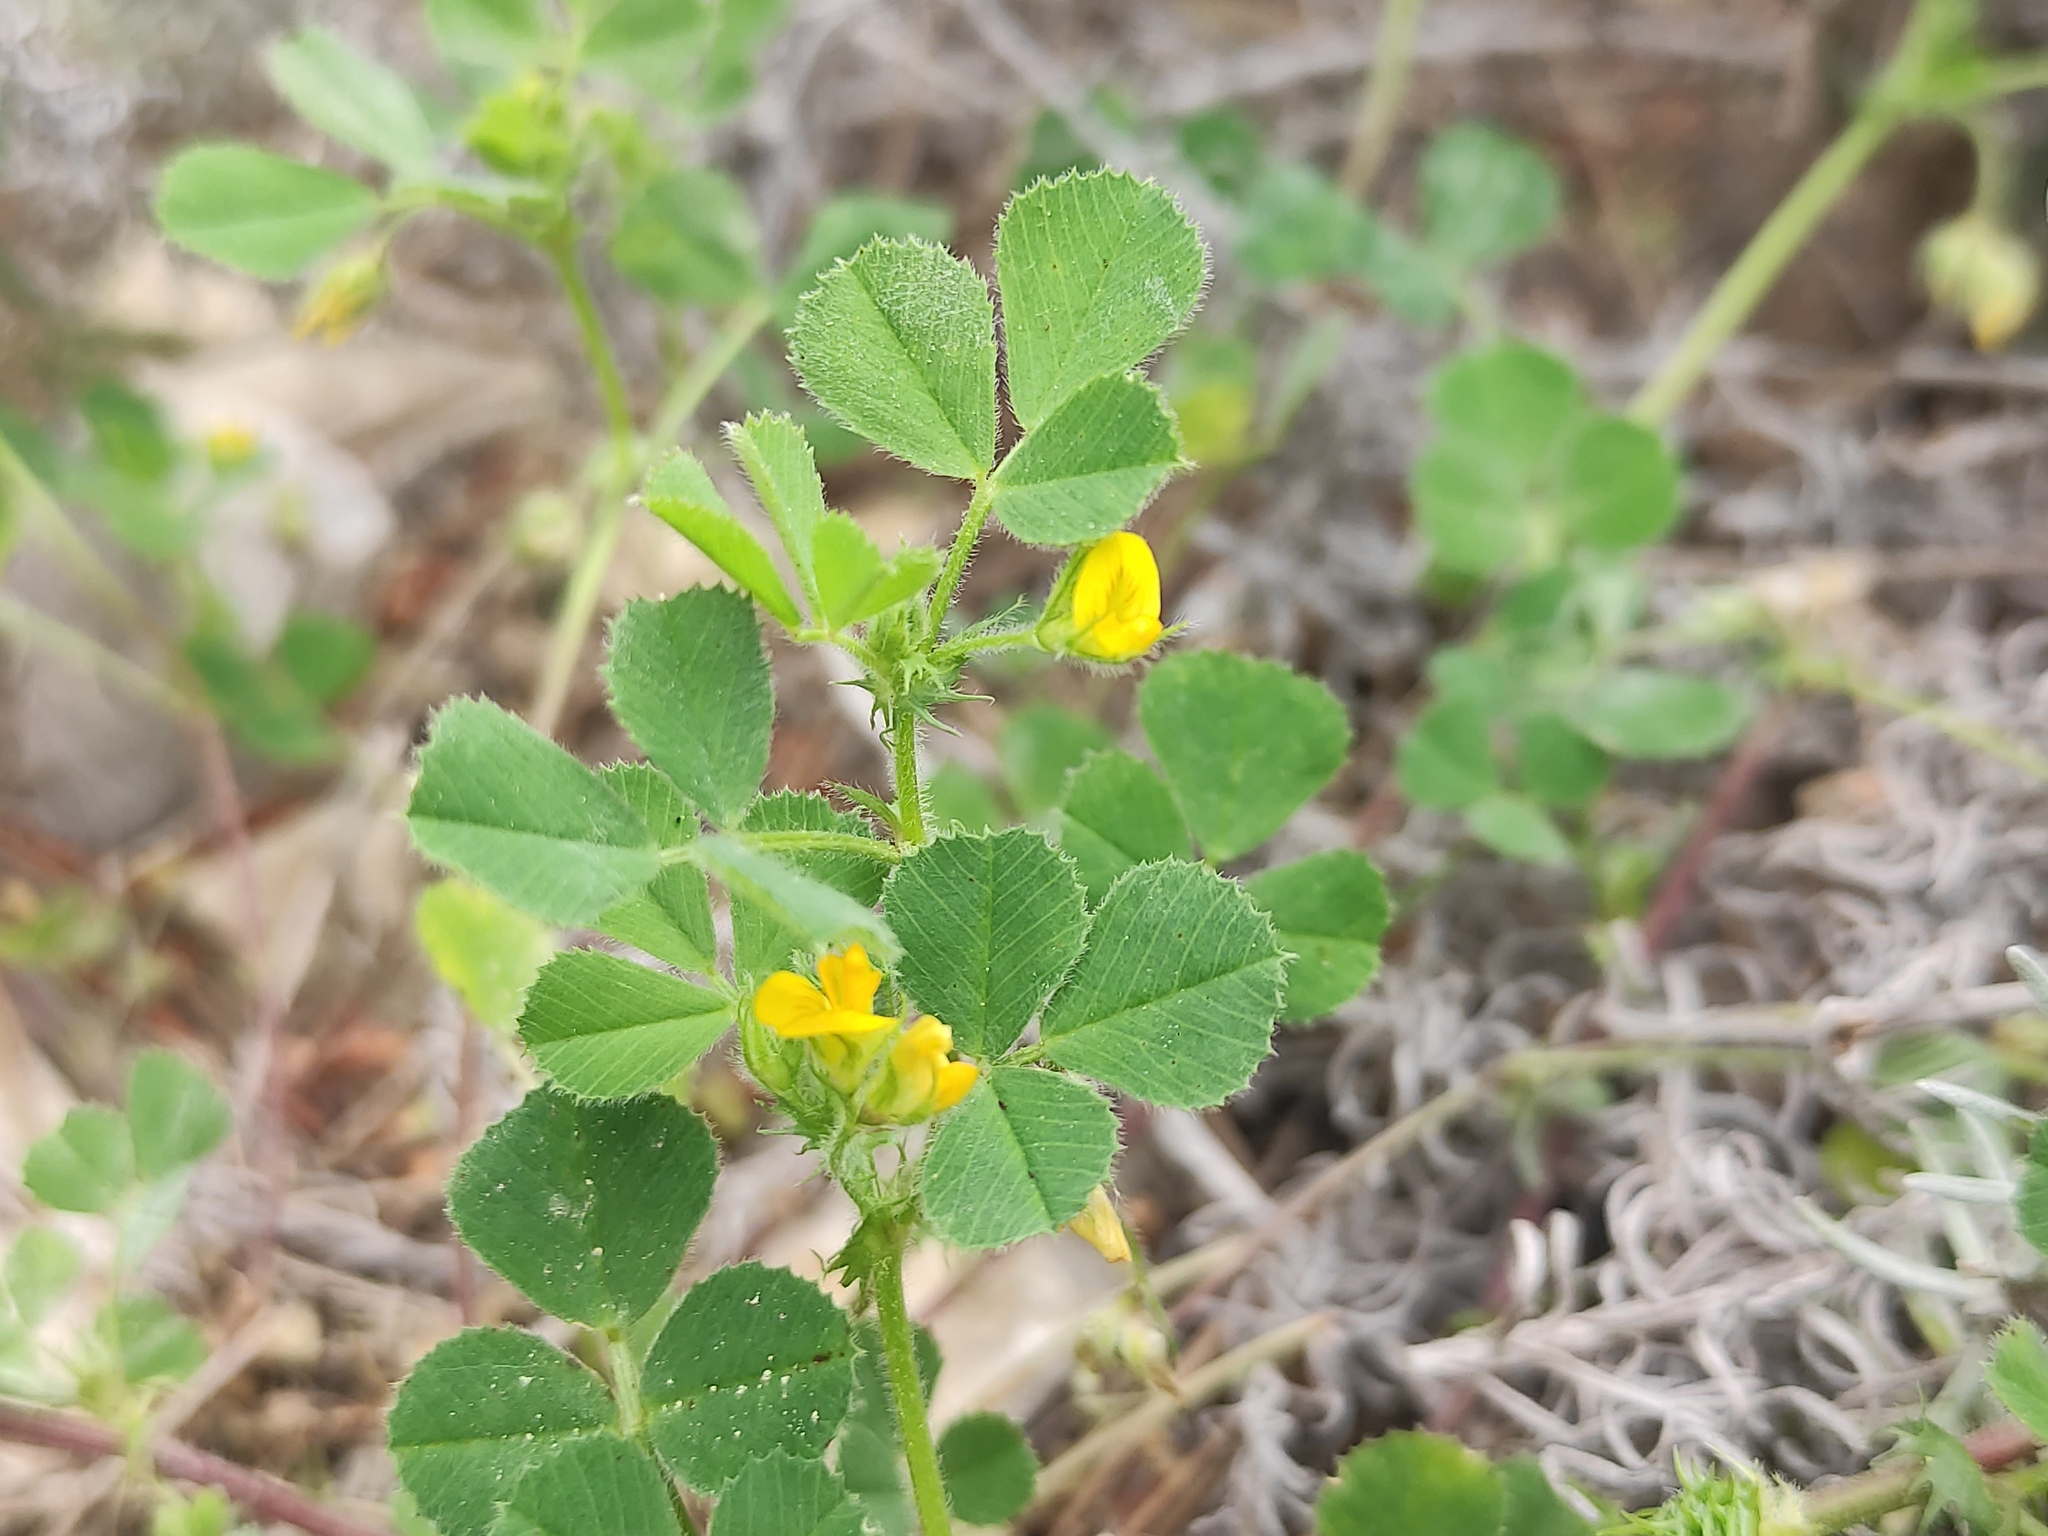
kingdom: Plantae
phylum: Tracheophyta
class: Magnoliopsida
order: Fabales
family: Fabaceae
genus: Medicago
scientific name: Medicago truncatula
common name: Strong-spined medick
